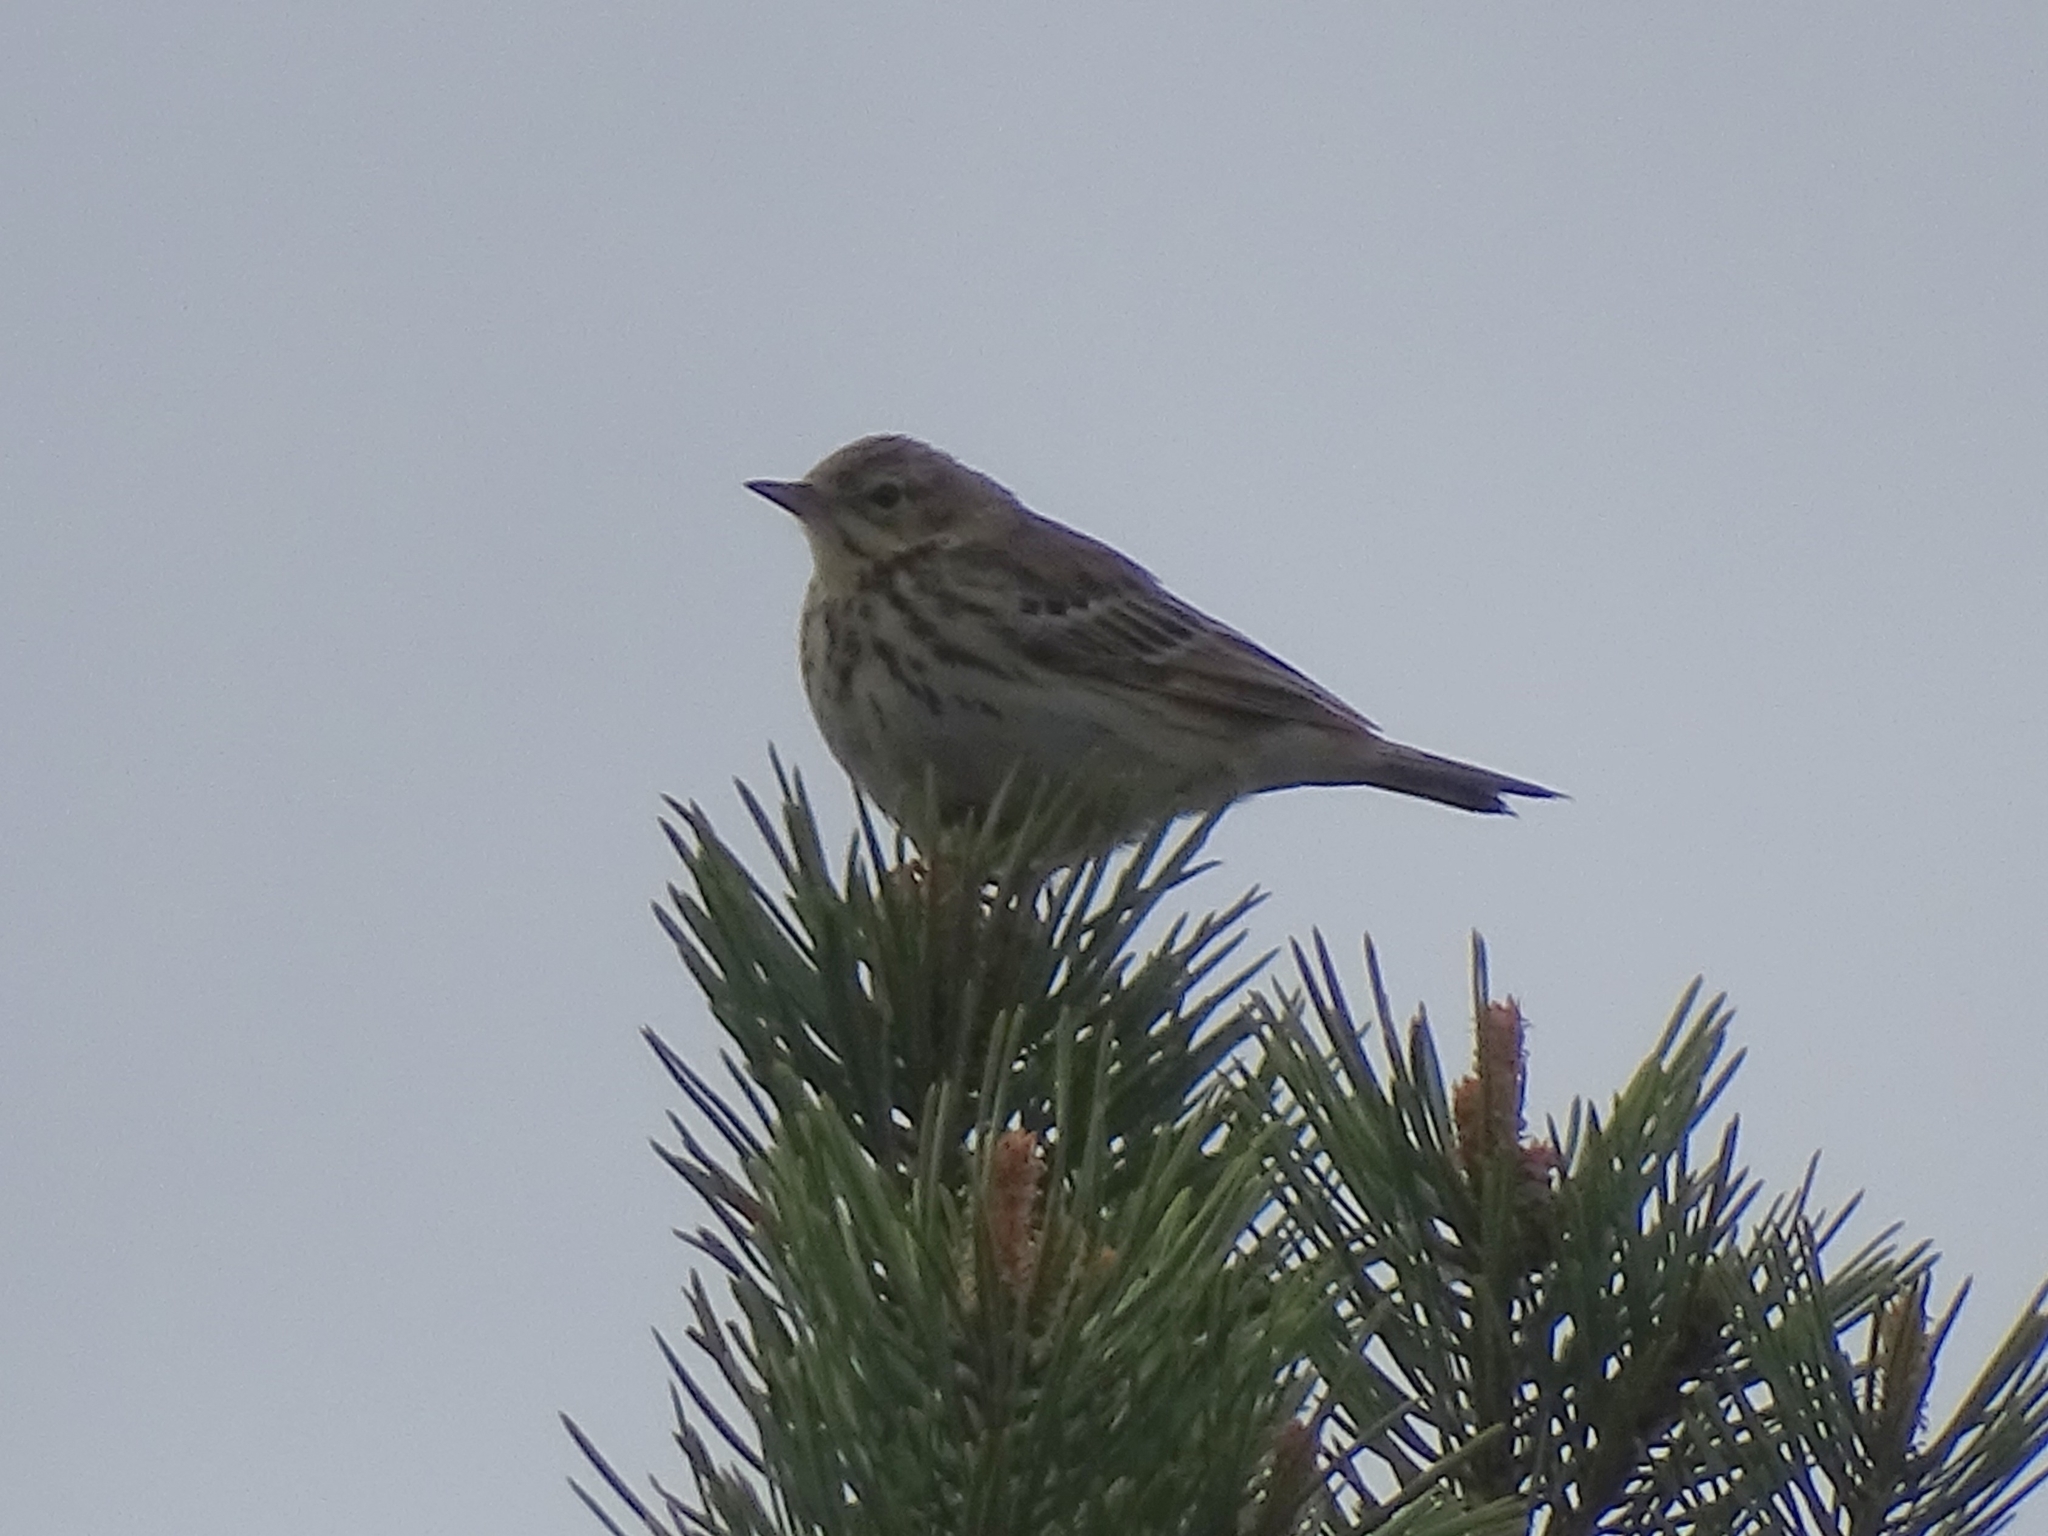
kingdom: Animalia
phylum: Chordata
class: Aves
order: Passeriformes
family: Motacillidae
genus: Anthus
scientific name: Anthus trivialis
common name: Tree pipit
